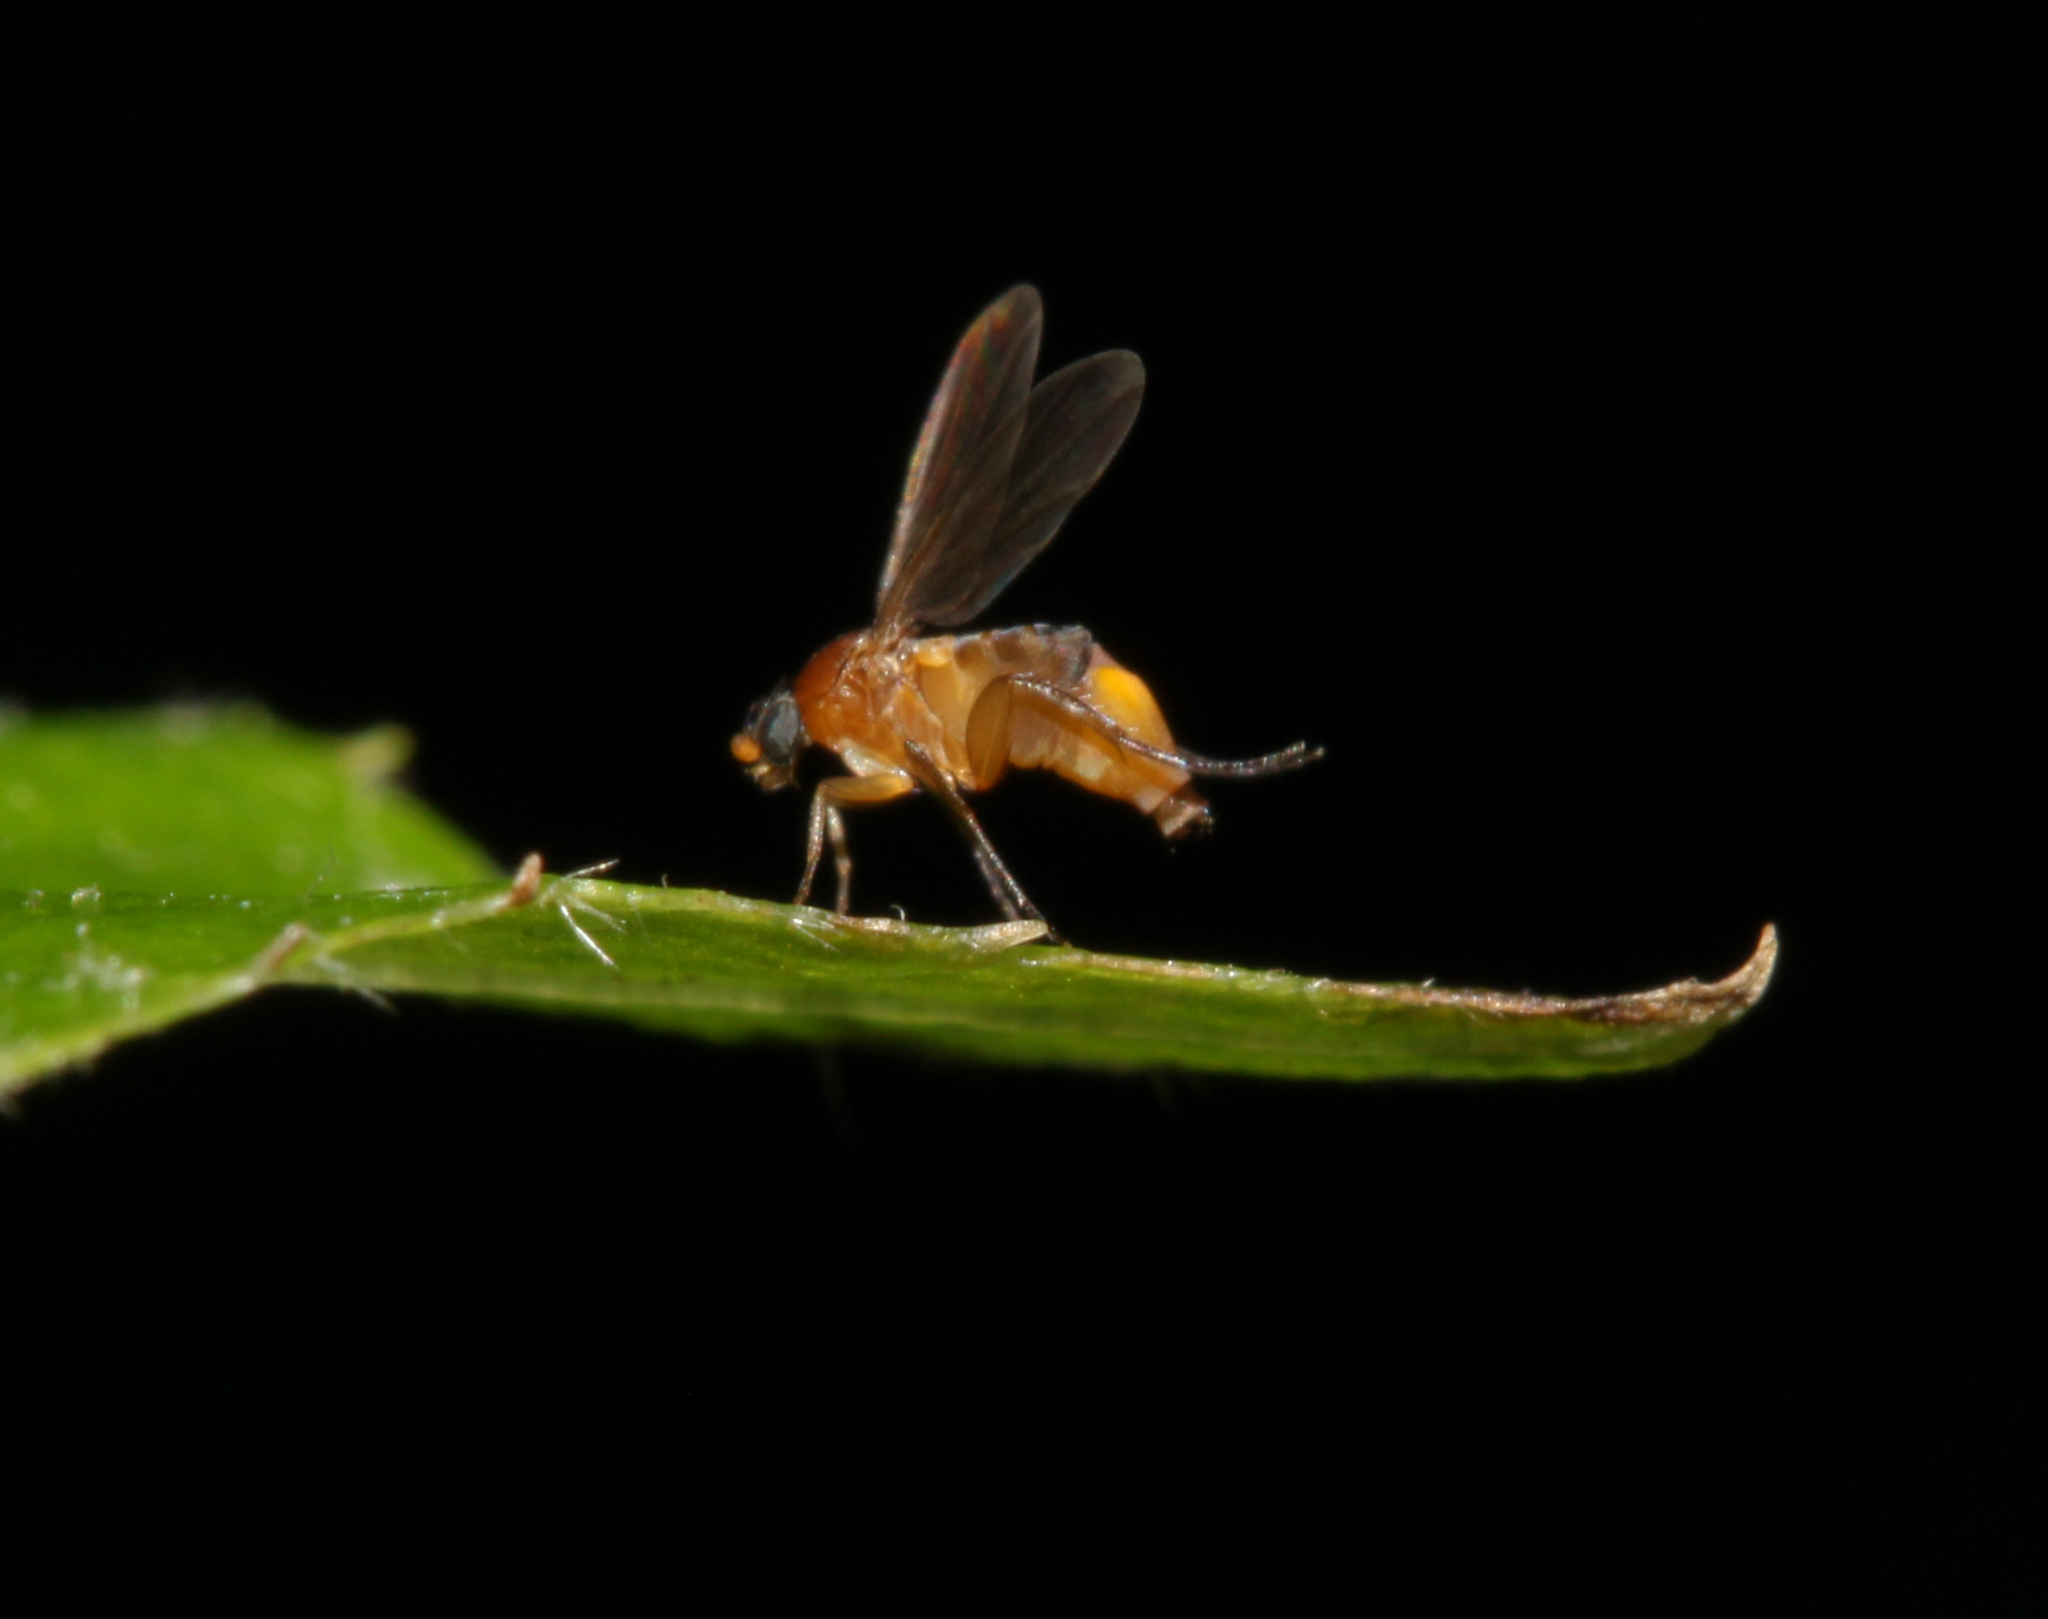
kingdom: Animalia
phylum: Arthropoda
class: Insecta
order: Diptera
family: Phoridae
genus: Phalacrotophora
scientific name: Phalacrotophora
